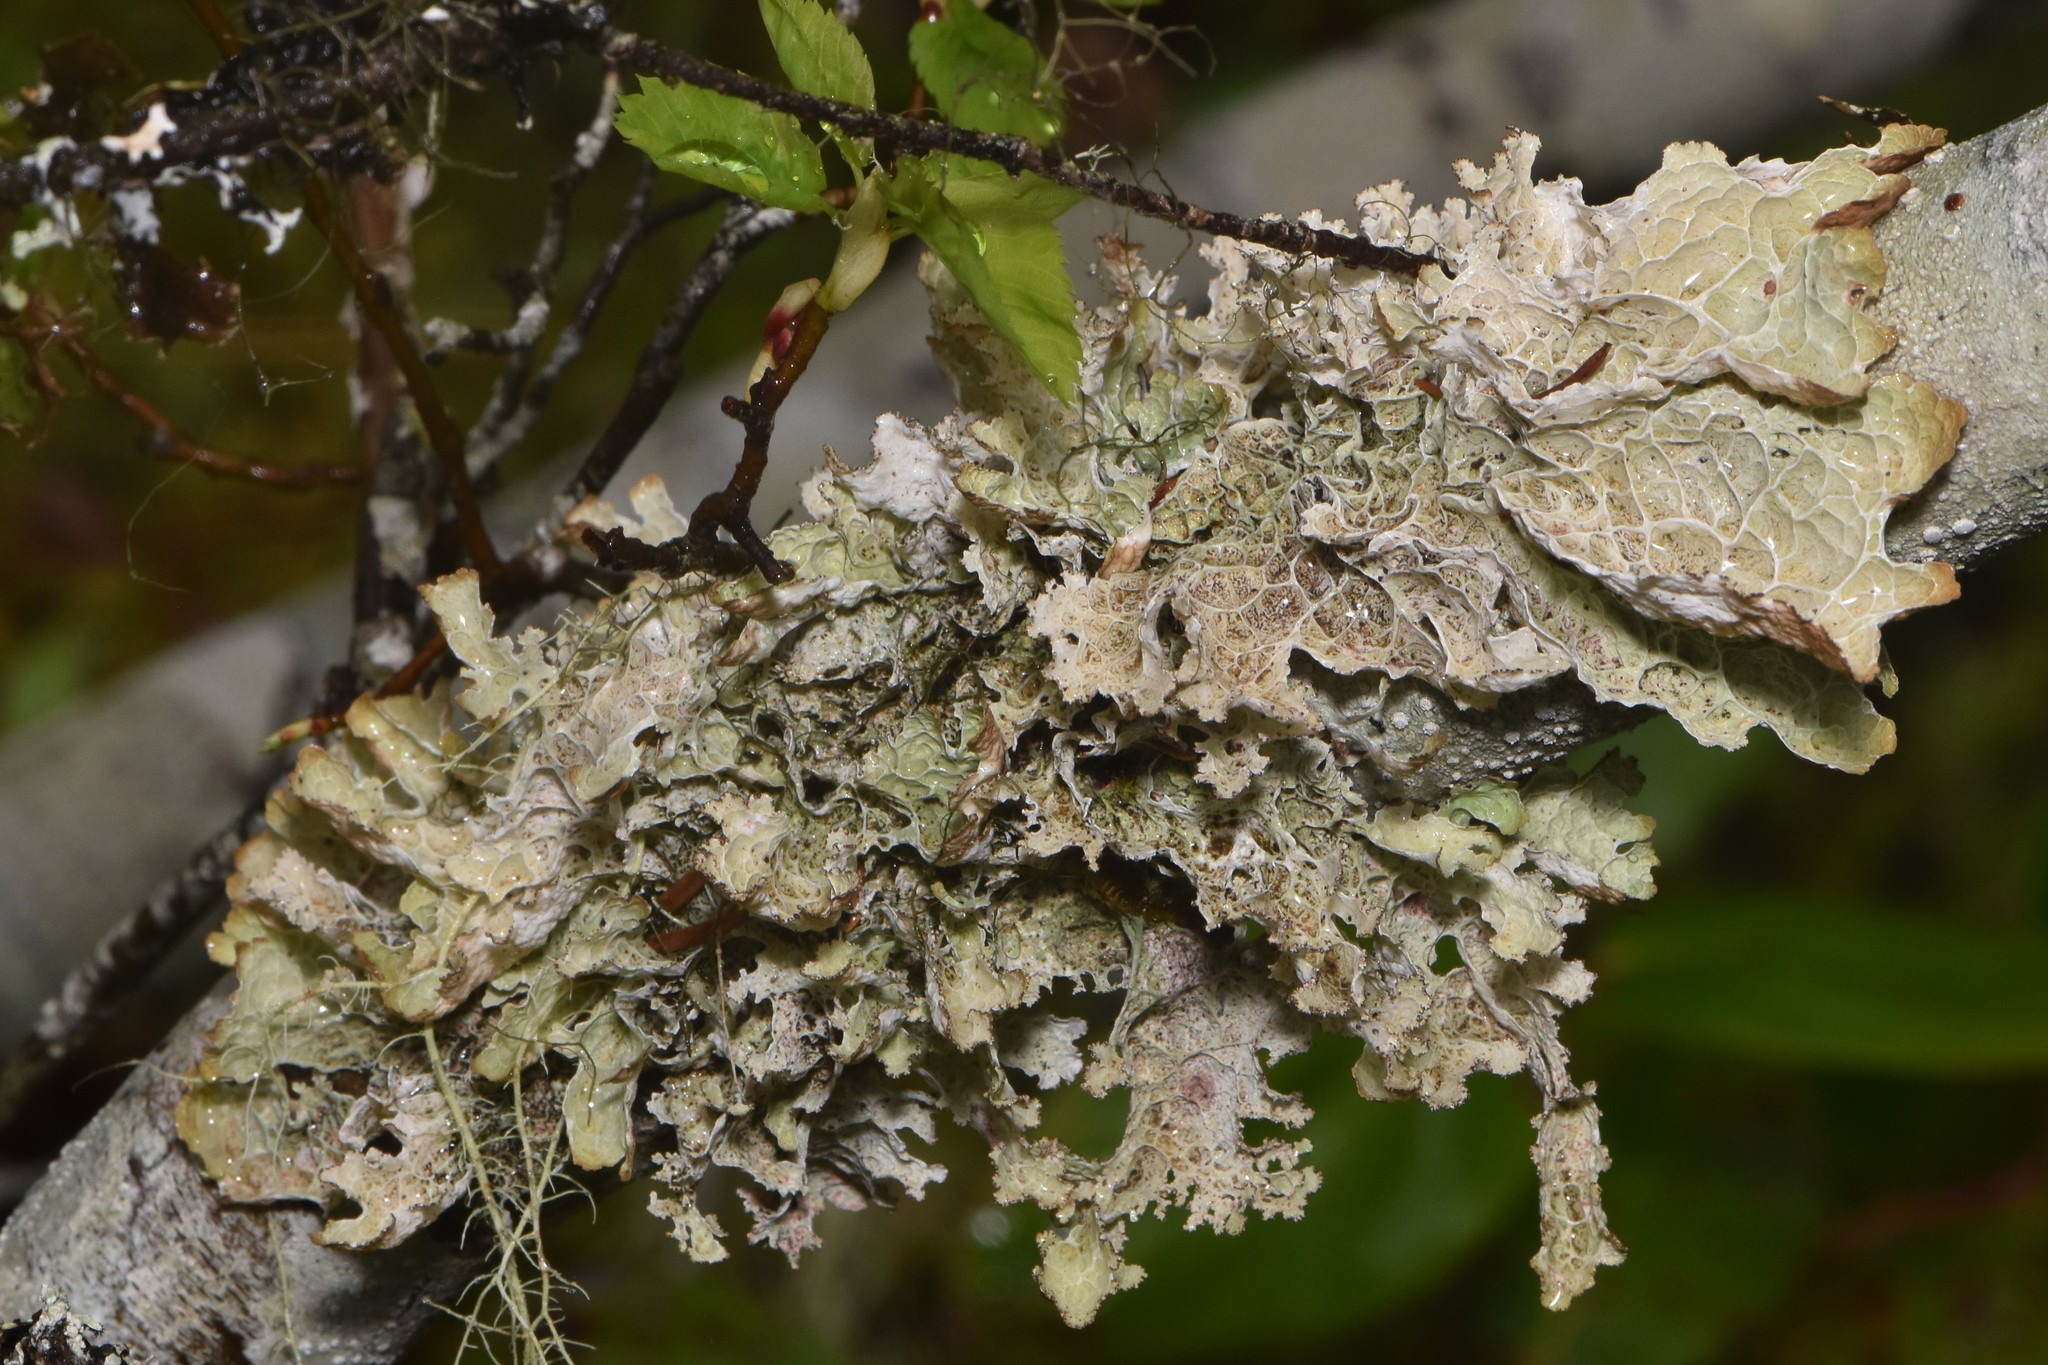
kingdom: Fungi
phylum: Ascomycota
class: Lecanoromycetes
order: Lecanorales
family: Parmeliaceae
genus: Platismatia
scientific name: Platismatia norvegica
